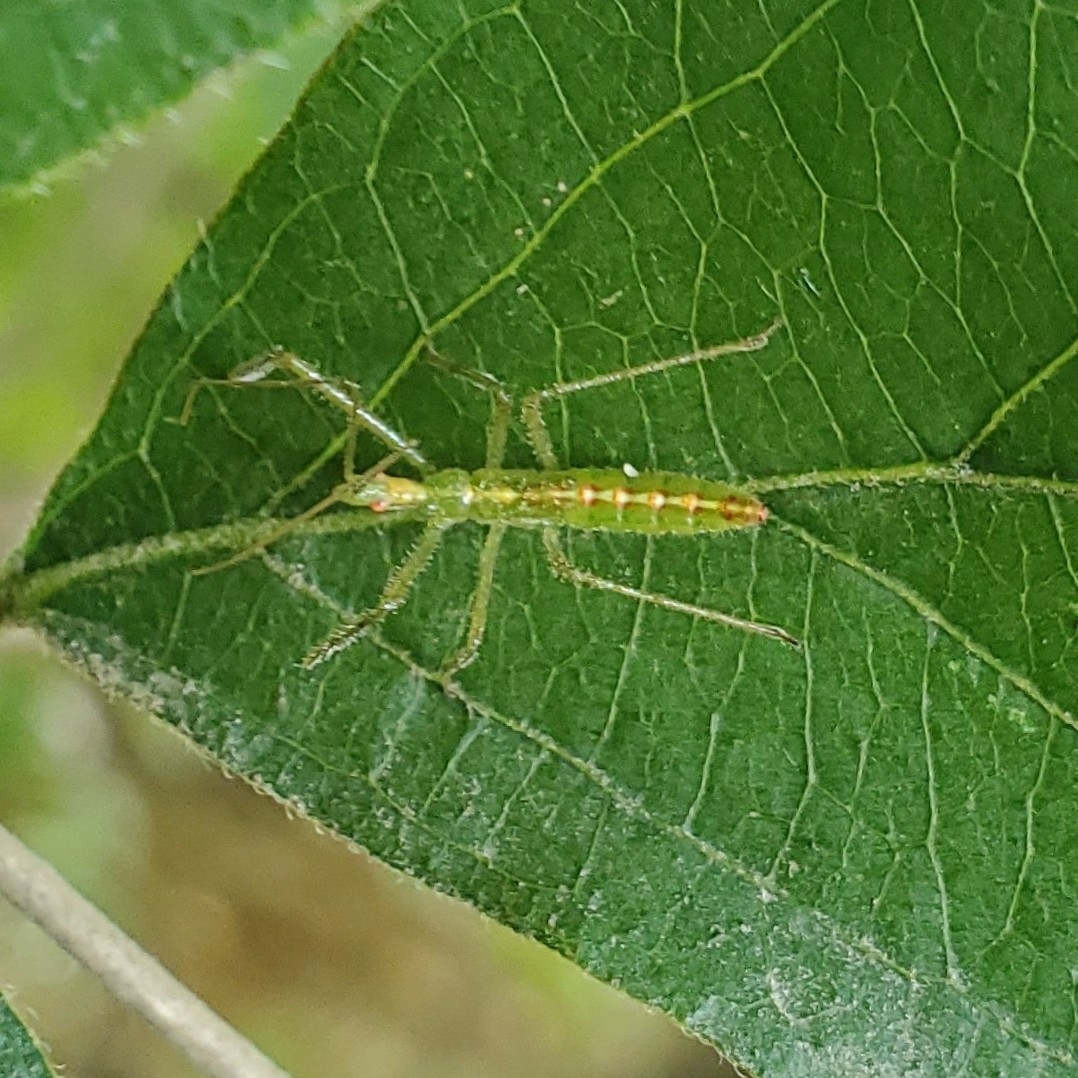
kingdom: Animalia
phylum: Arthropoda
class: Insecta
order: Hemiptera
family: Reduviidae
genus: Zelus
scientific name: Zelus luridus
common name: Pale green assassin bug
